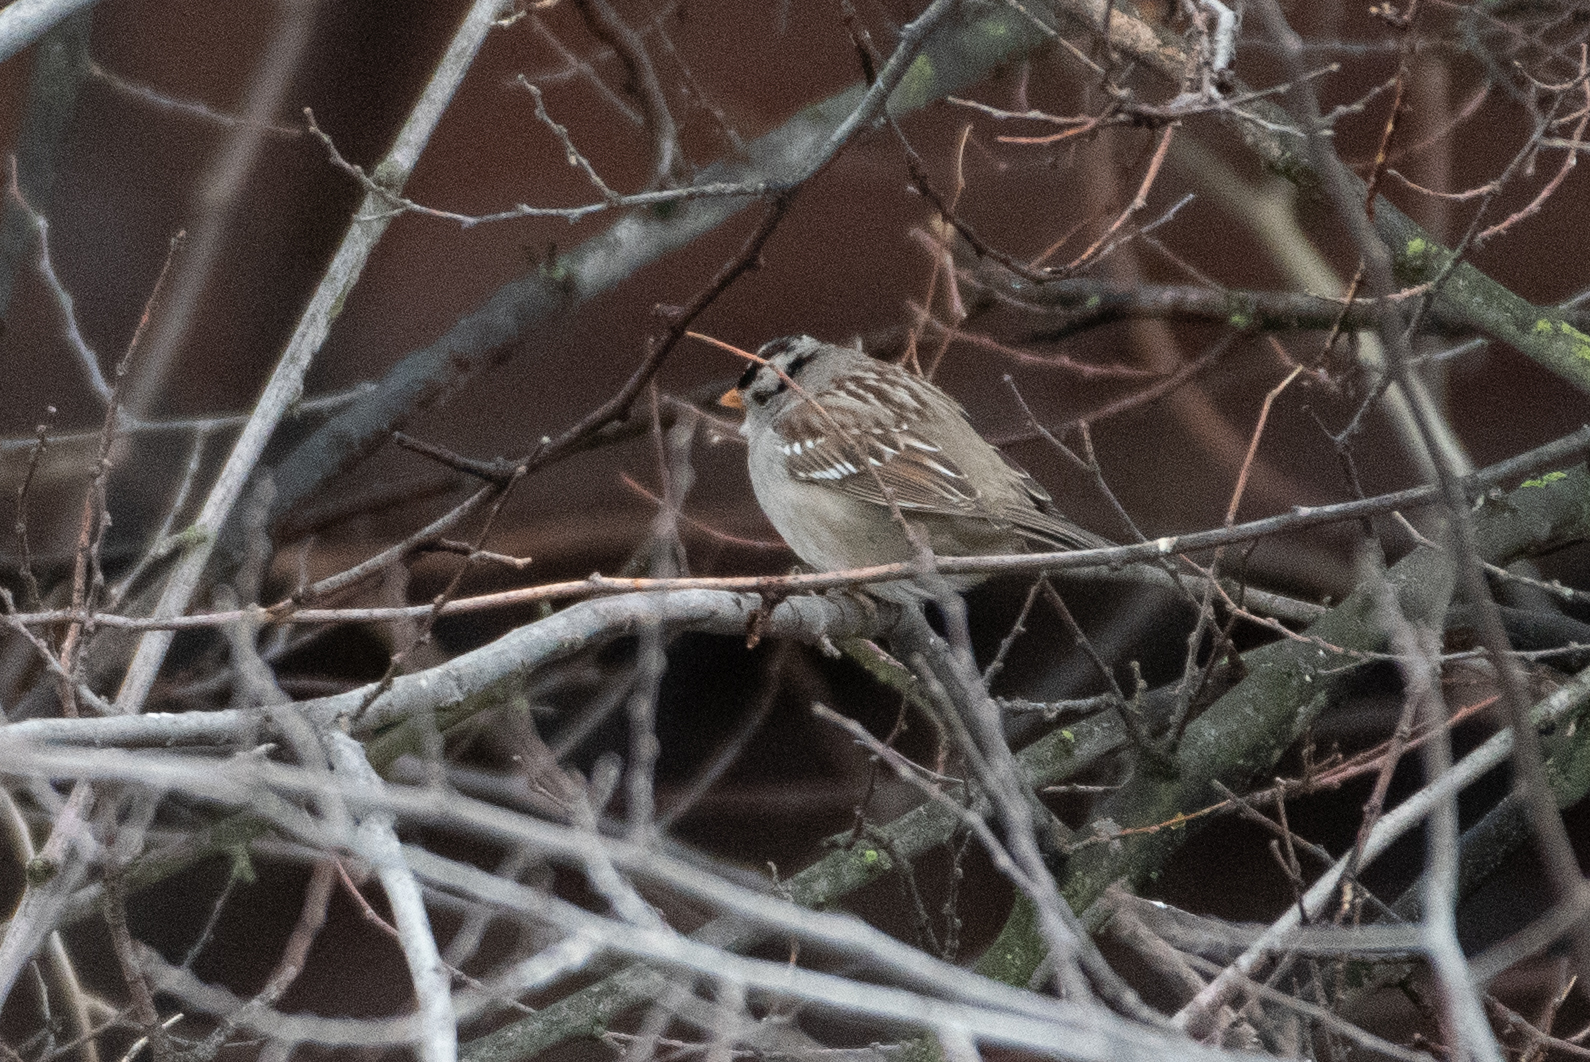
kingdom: Animalia
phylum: Chordata
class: Aves
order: Passeriformes
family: Passerellidae
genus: Zonotrichia
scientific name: Zonotrichia leucophrys
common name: White-crowned sparrow
